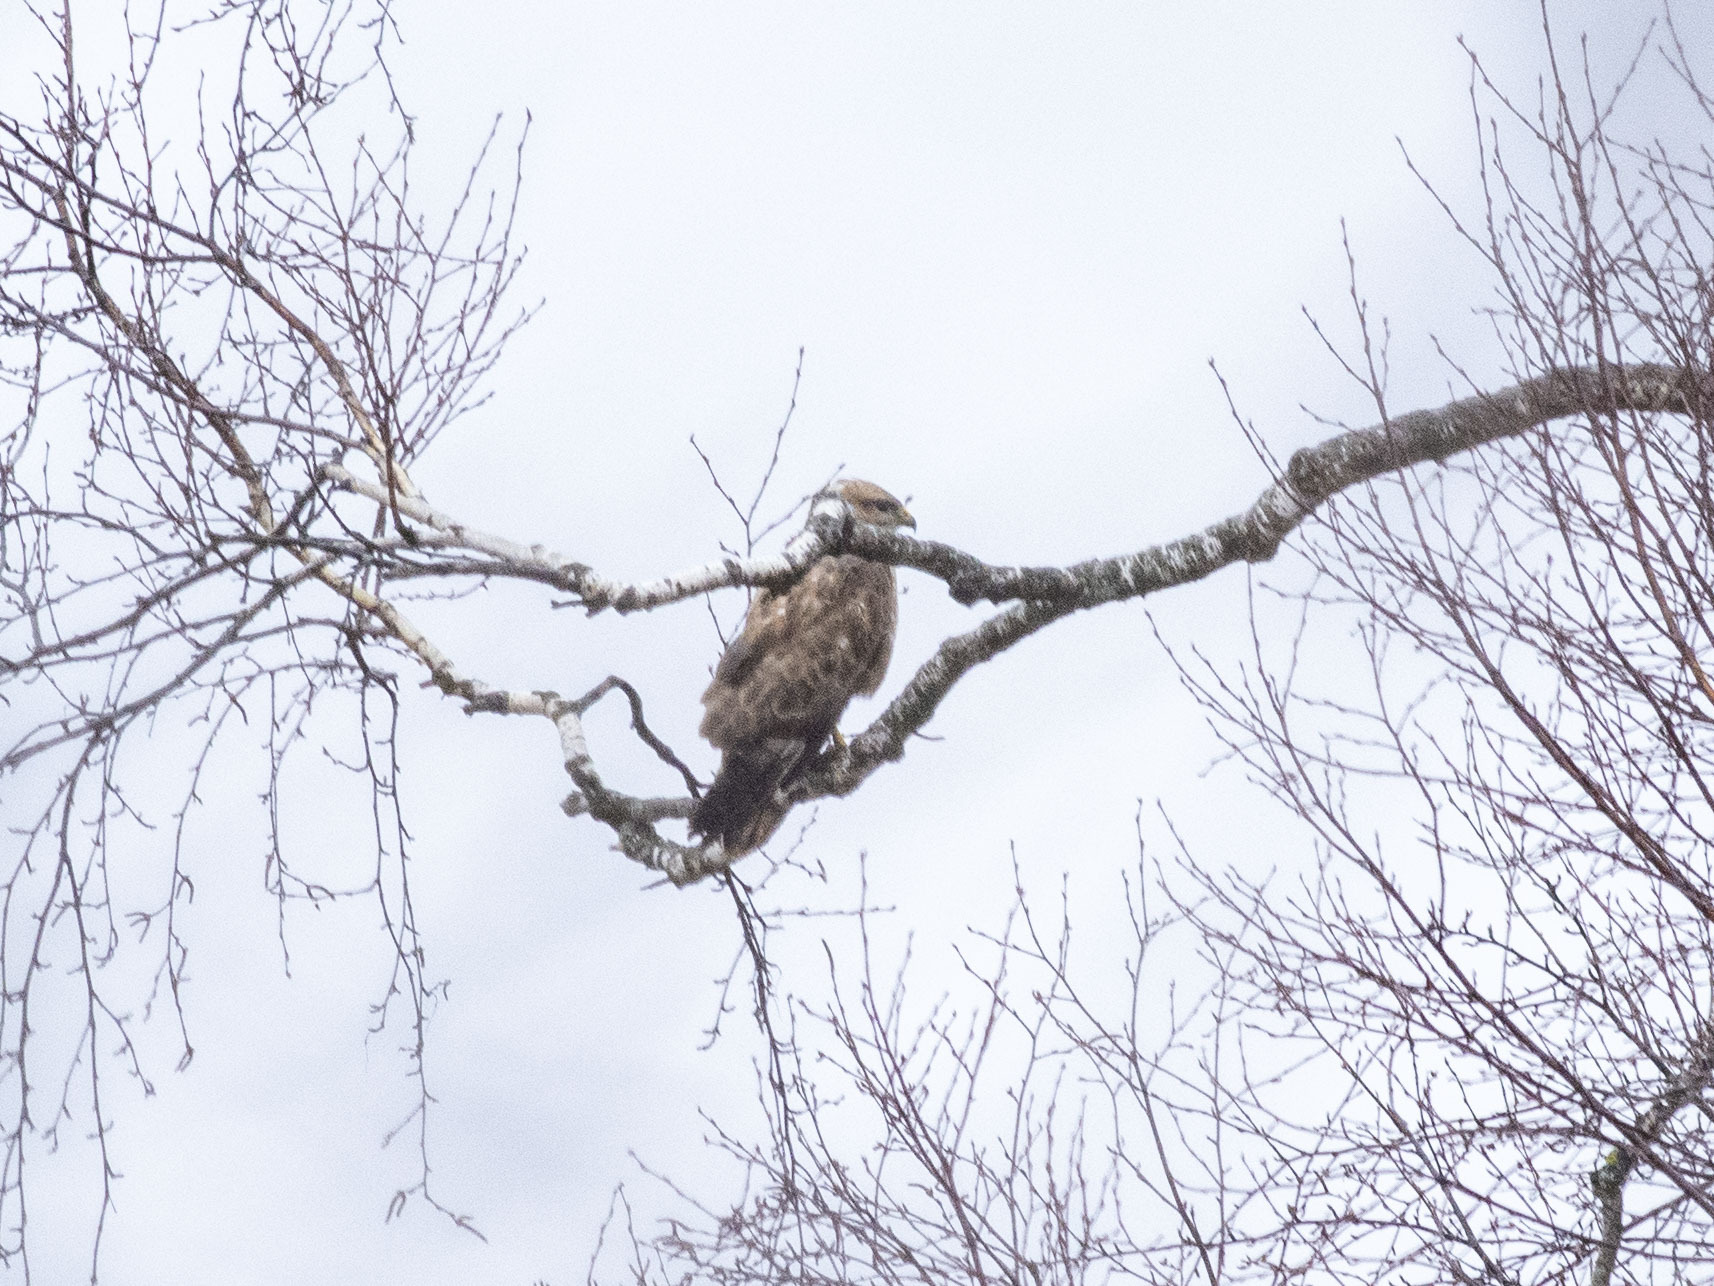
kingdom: Animalia
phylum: Chordata
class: Aves
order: Accipitriformes
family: Accipitridae
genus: Buteo
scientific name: Buteo buteo
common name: Common buzzard
